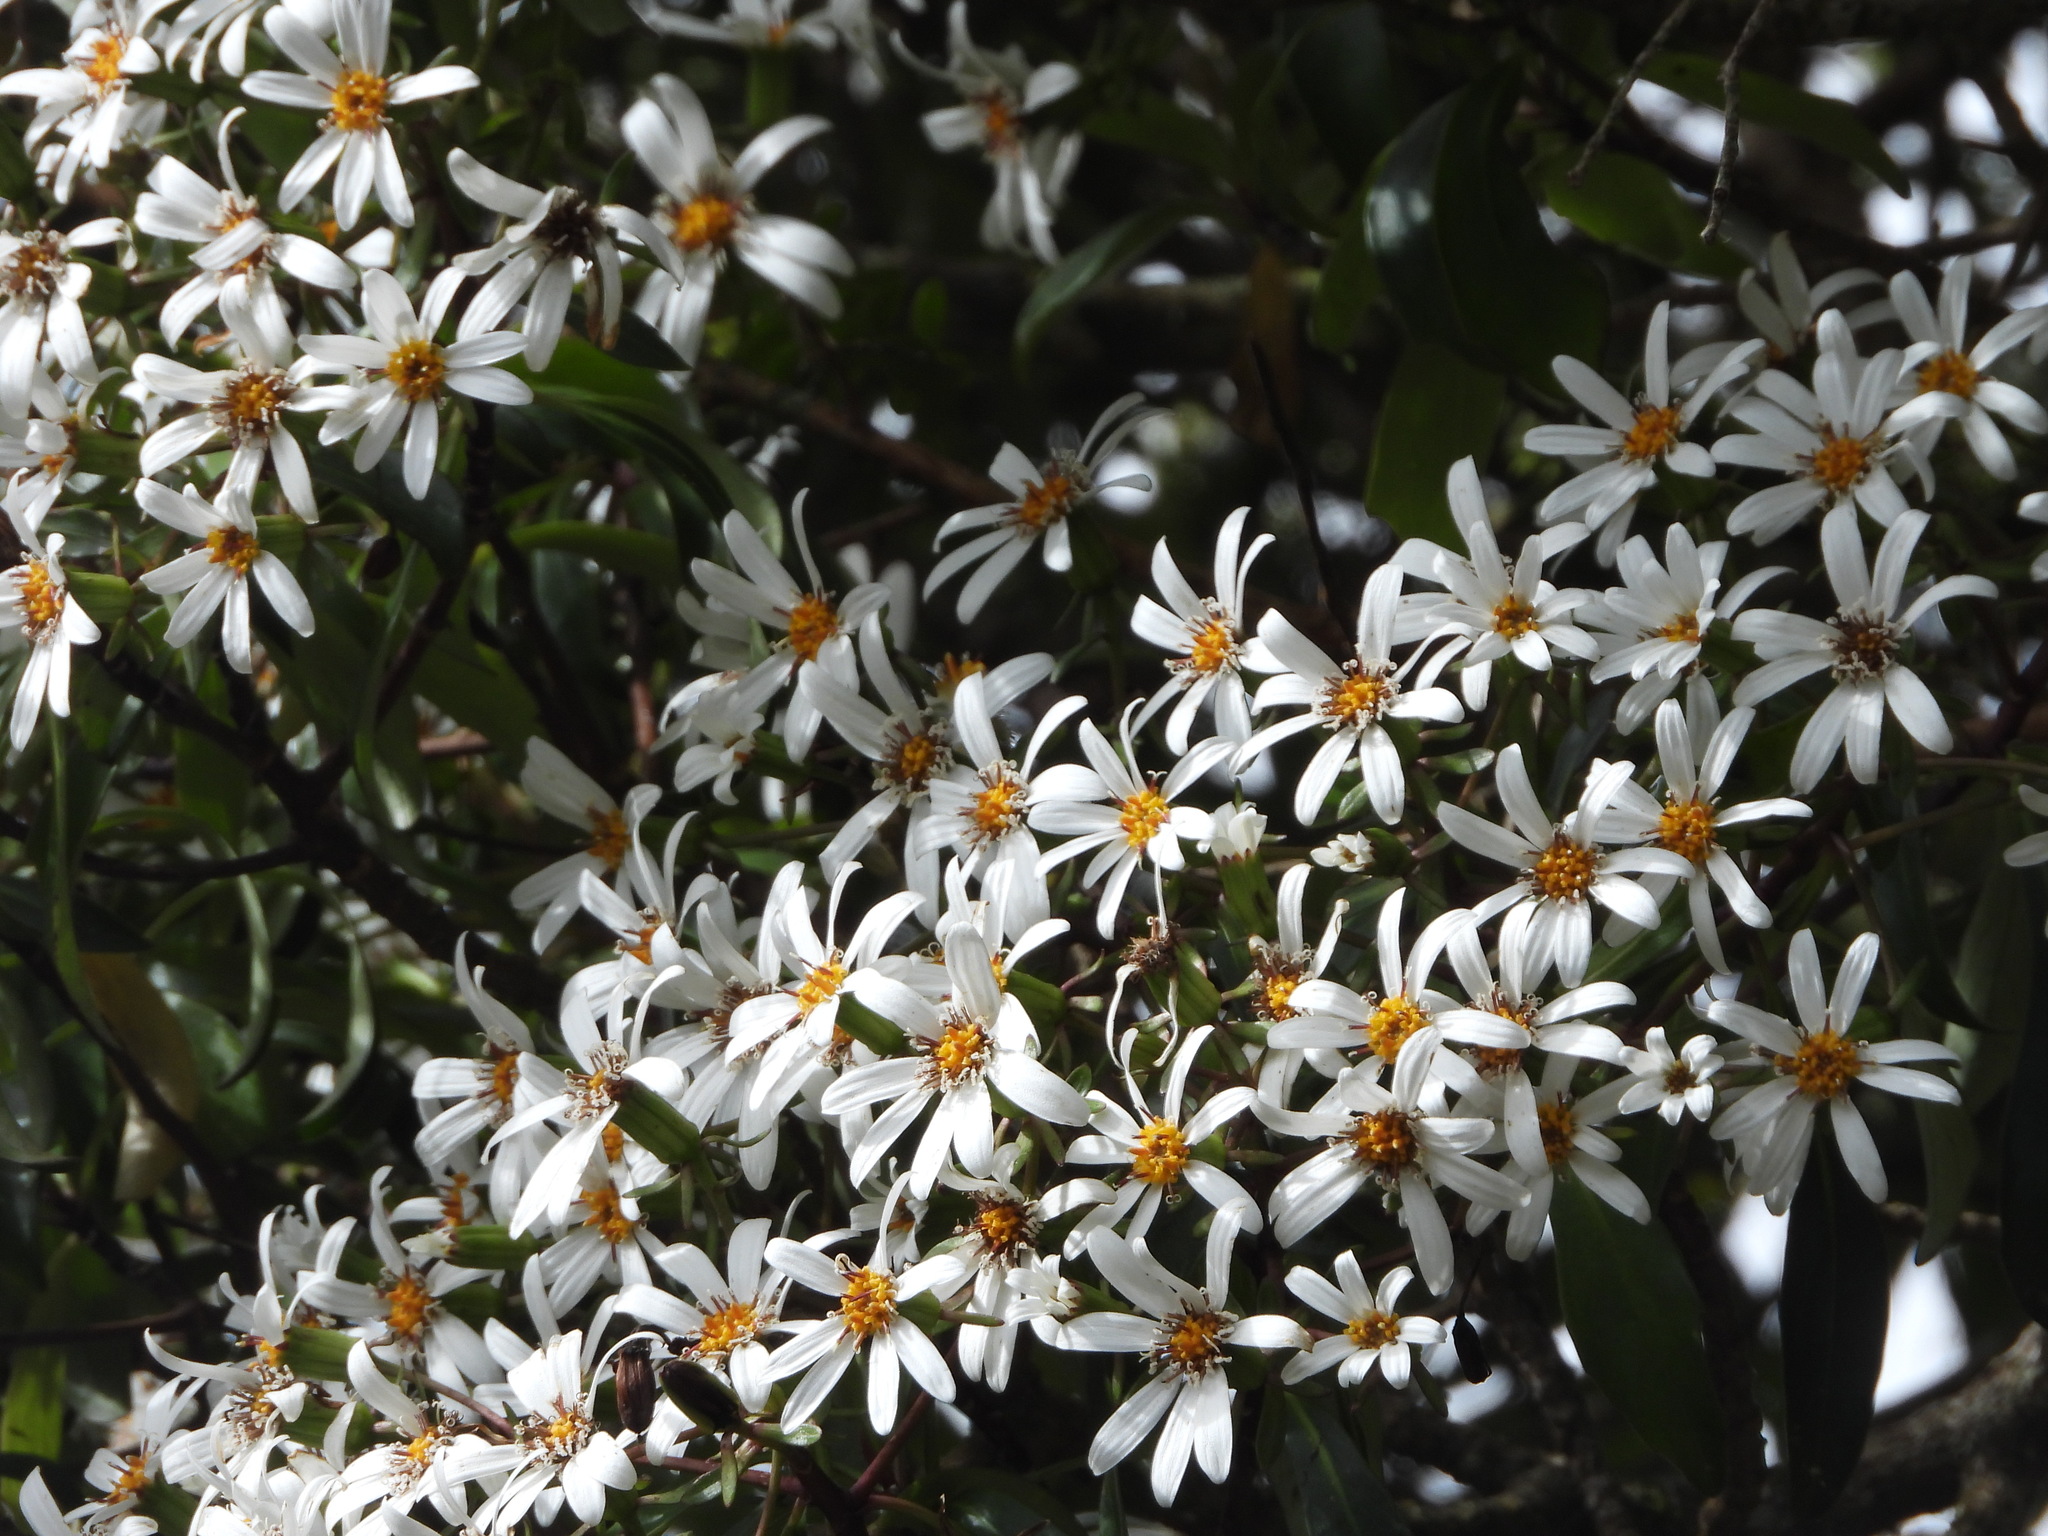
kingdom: Plantae
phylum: Tracheophyta
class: Magnoliopsida
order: Asterales
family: Asteraceae
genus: Brachyglottis
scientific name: Brachyglottis kirkii
